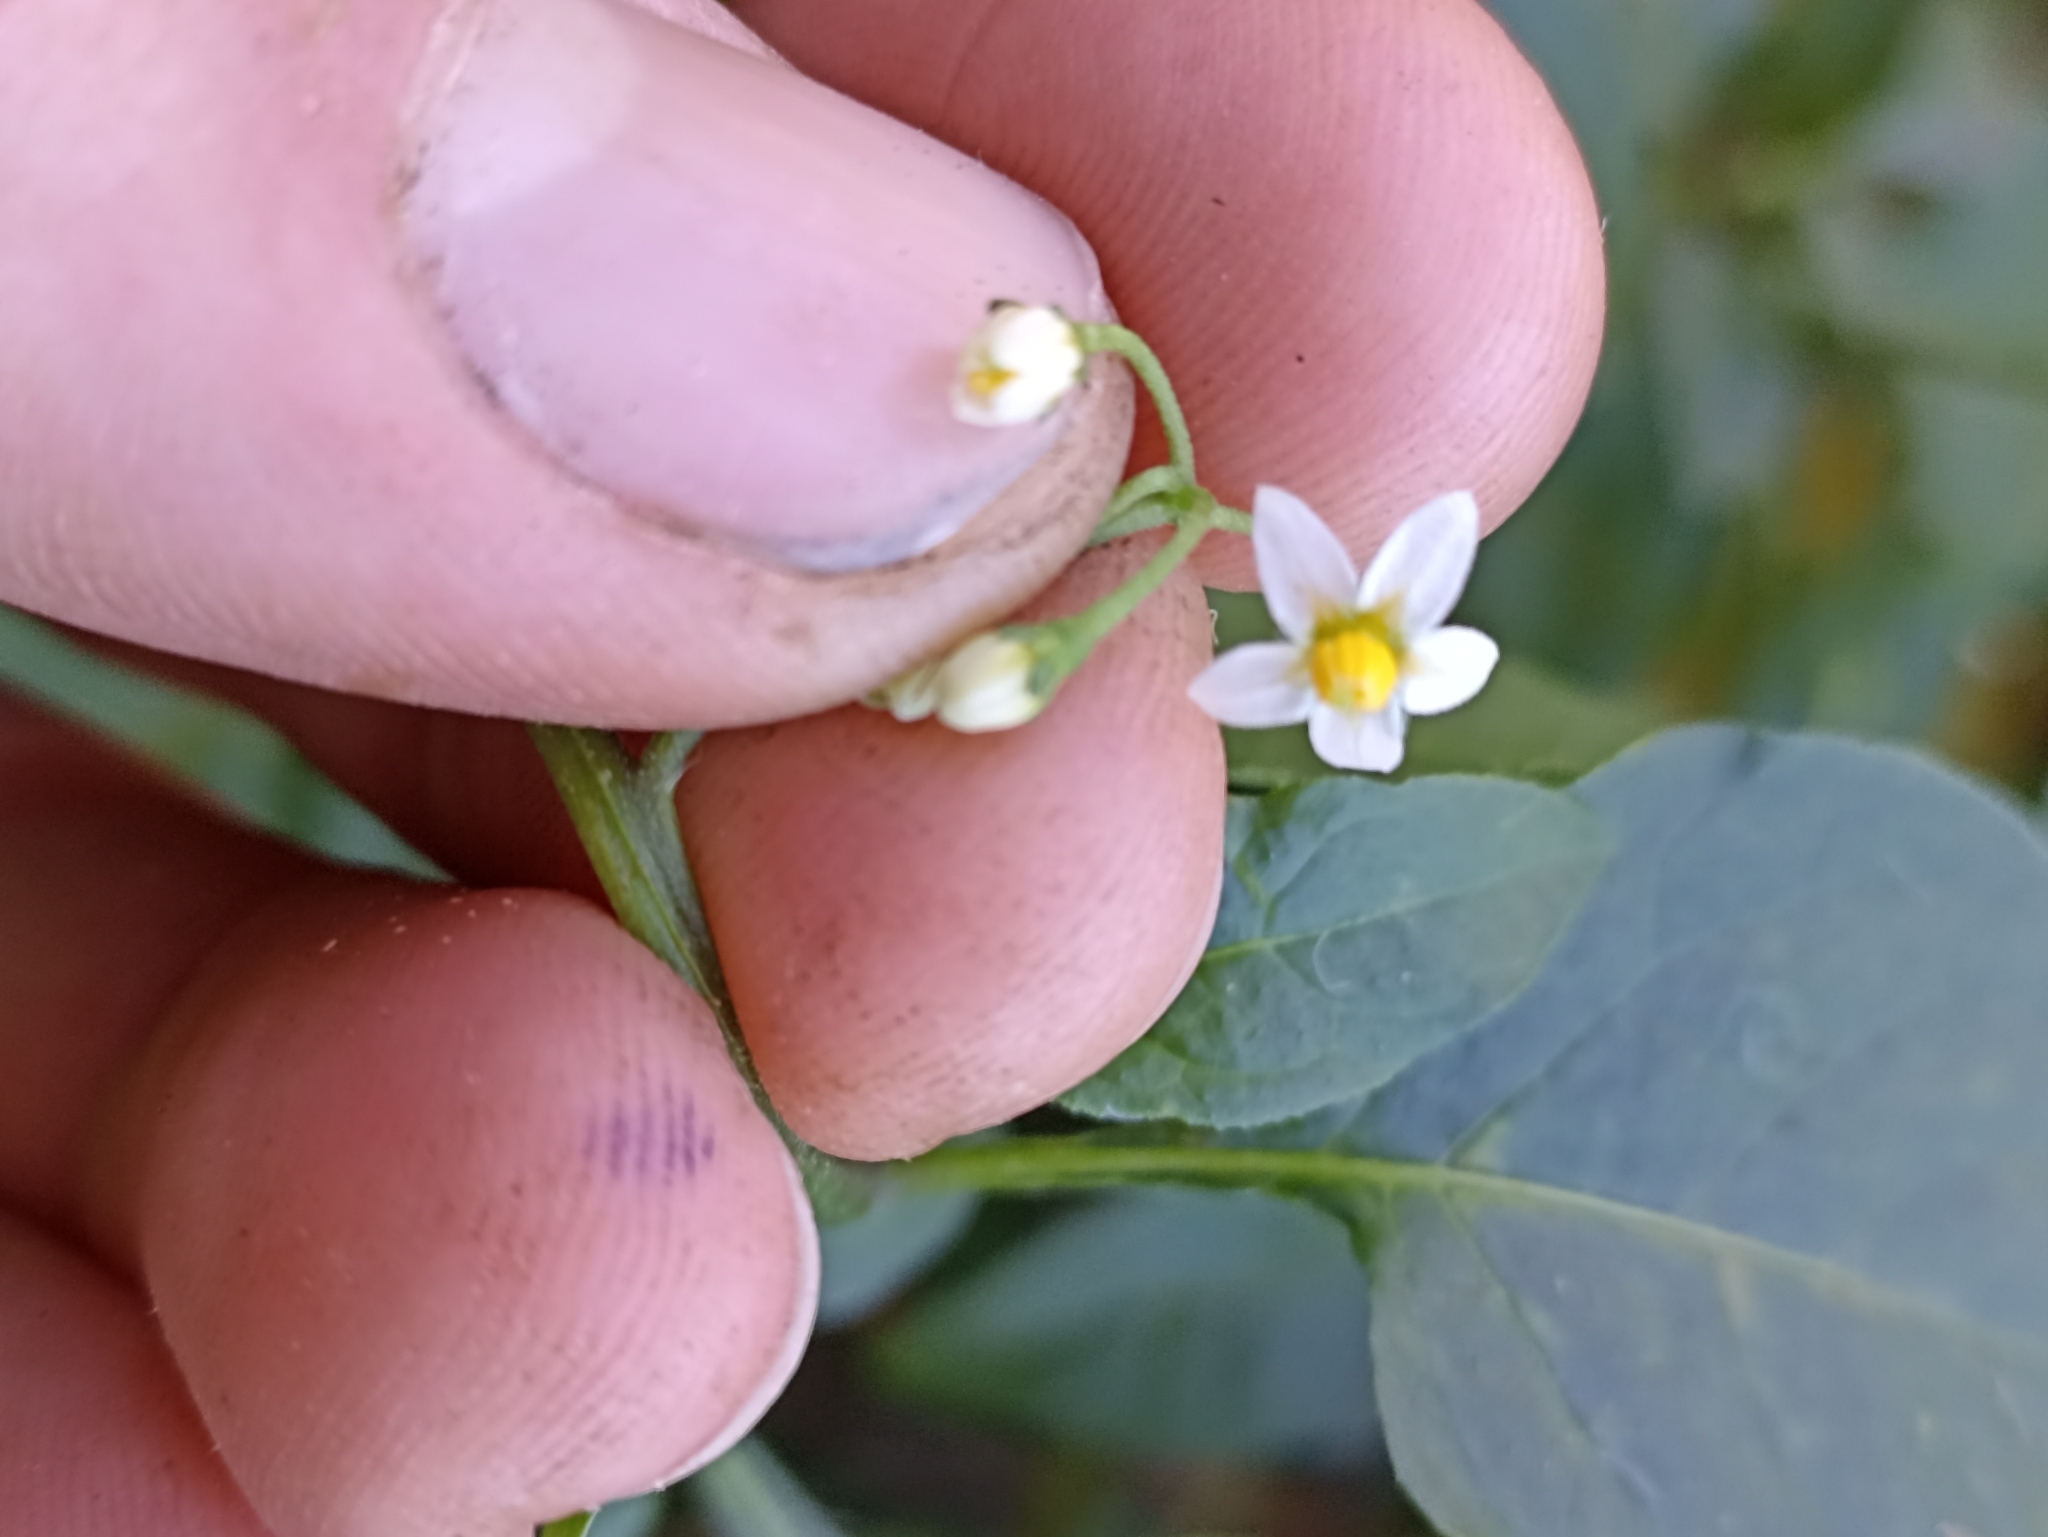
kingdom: Plantae
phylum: Tracheophyta
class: Magnoliopsida
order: Solanales
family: Solanaceae
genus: Solanum
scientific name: Solanum nigrum
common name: Black nightshade
